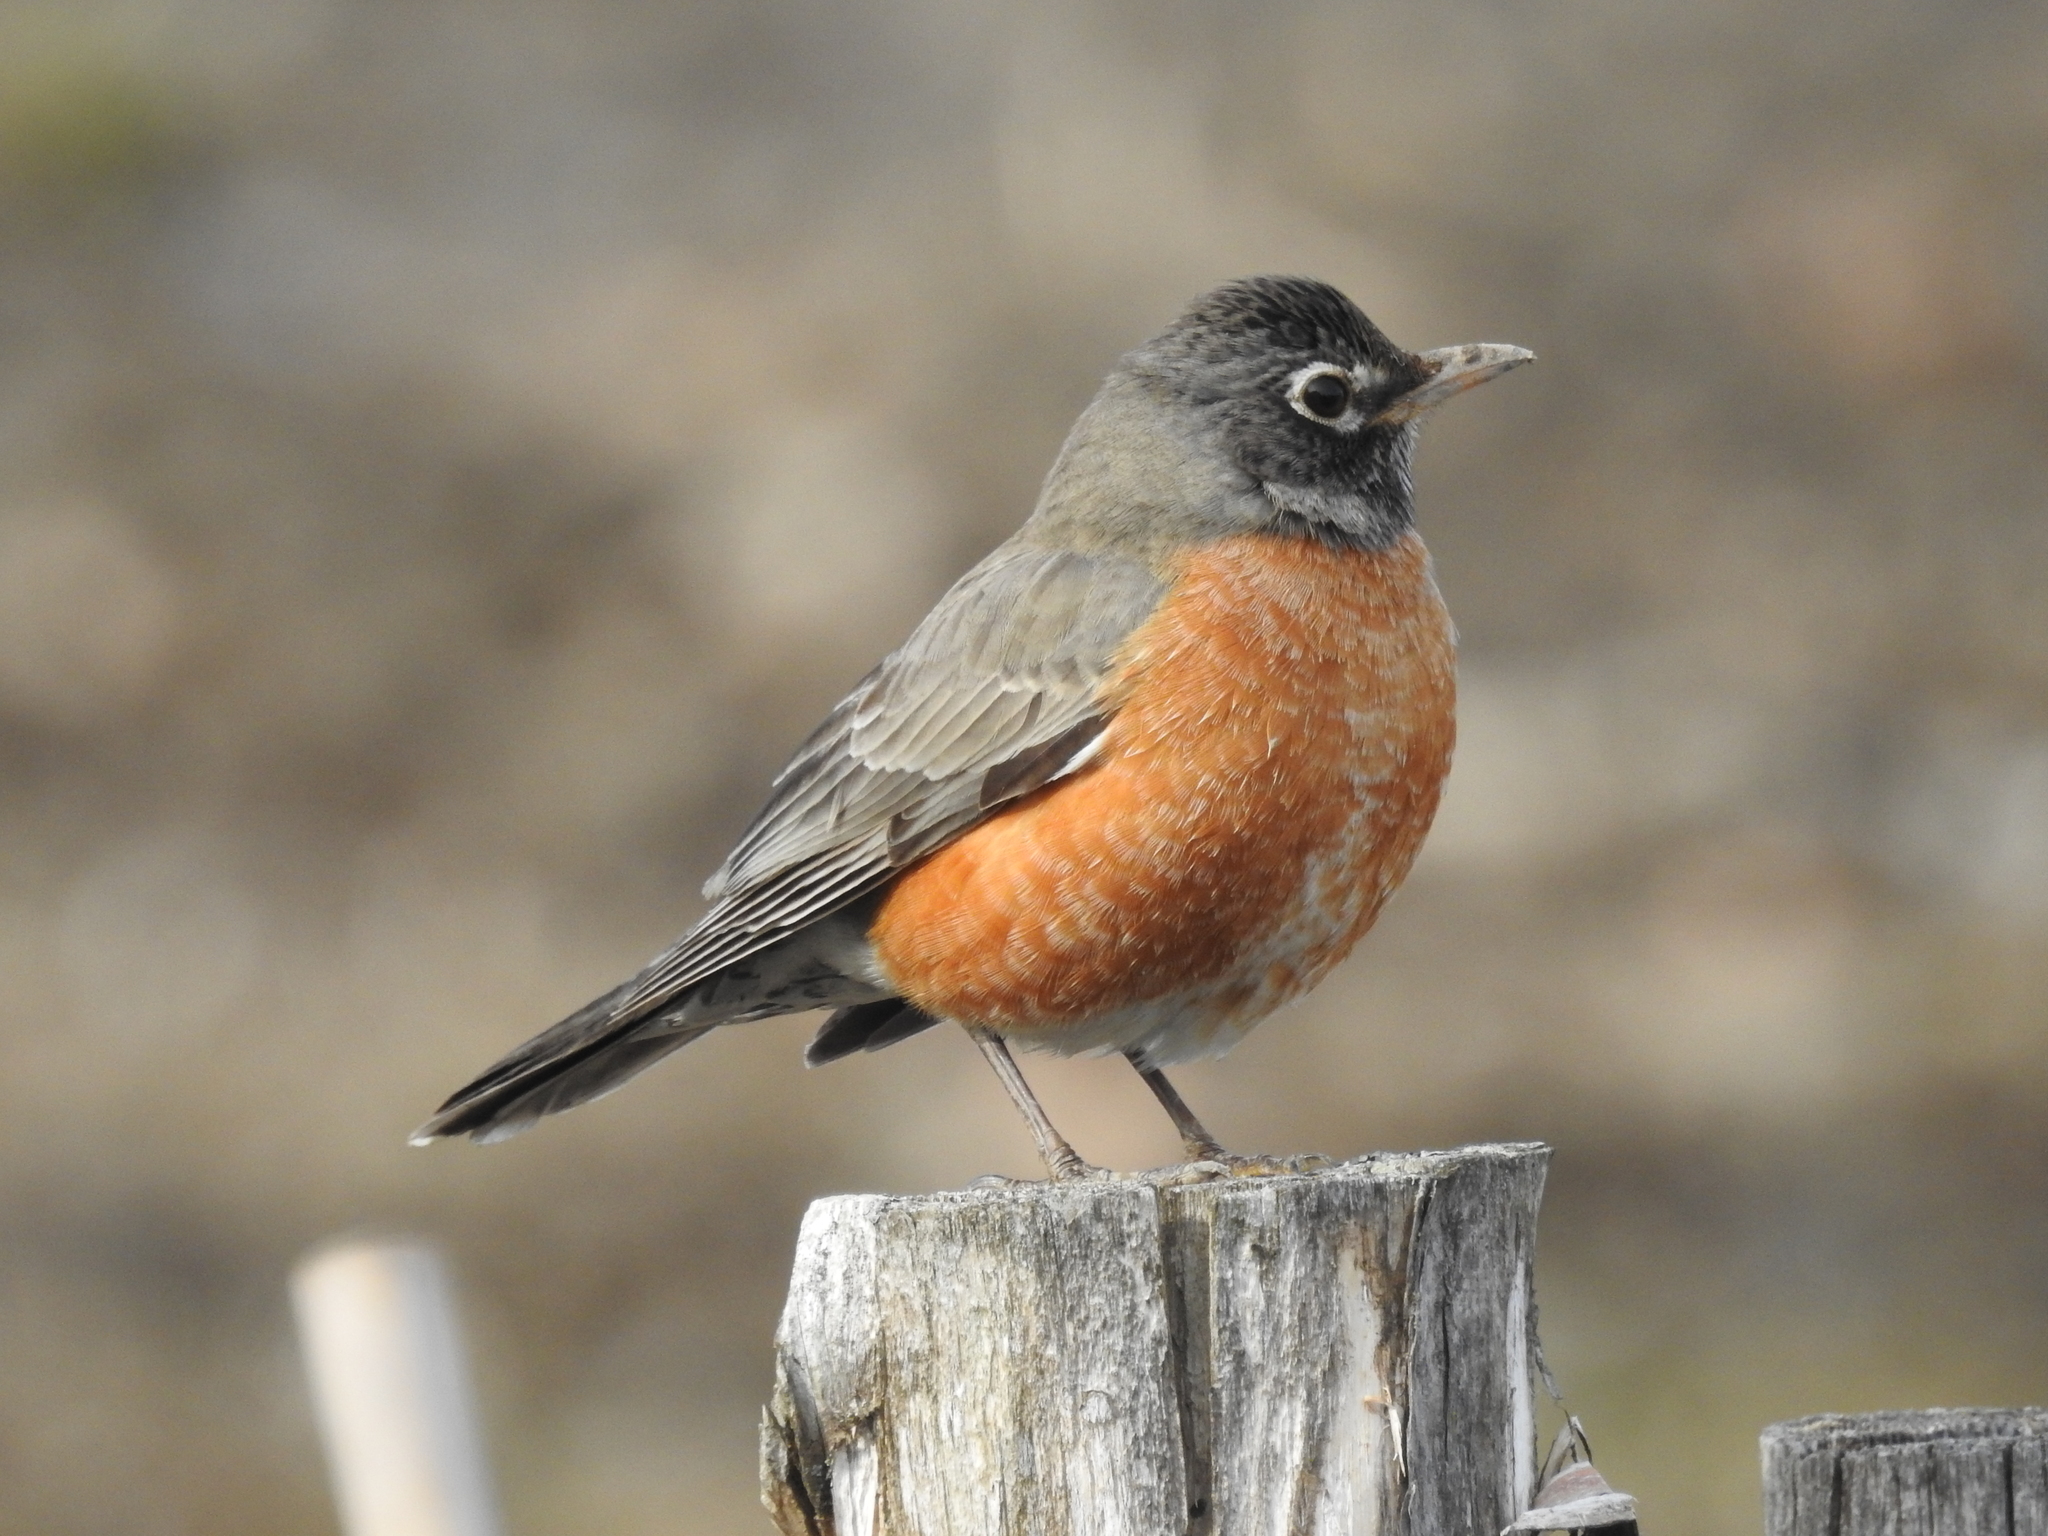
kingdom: Animalia
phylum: Chordata
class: Aves
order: Passeriformes
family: Turdidae
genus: Turdus
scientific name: Turdus migratorius
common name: American robin
